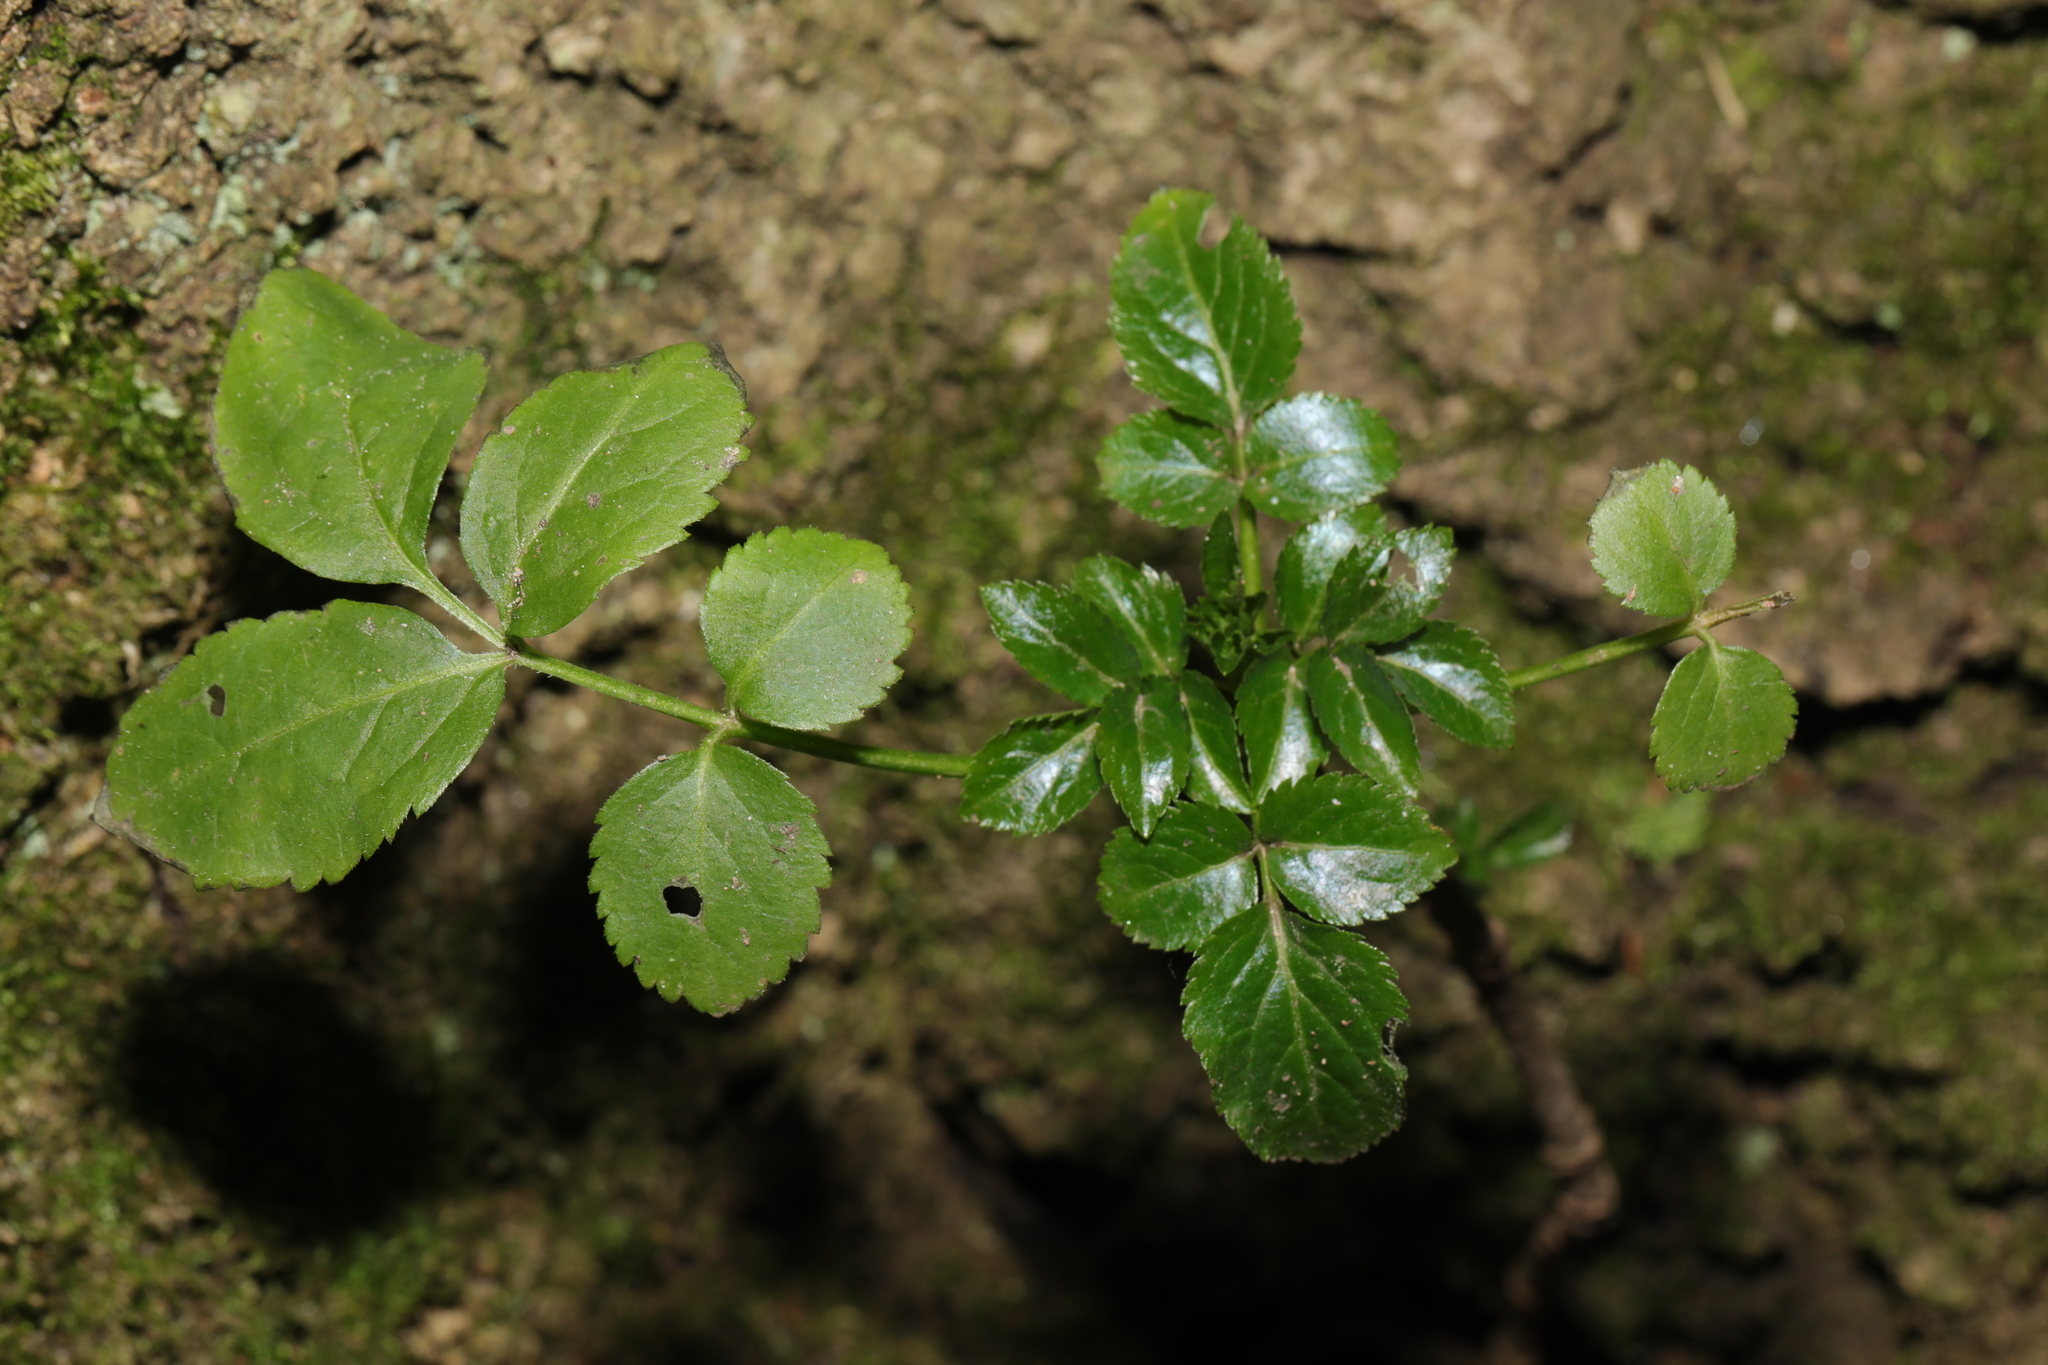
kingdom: Plantae
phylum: Tracheophyta
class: Magnoliopsida
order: Dipsacales
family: Viburnaceae
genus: Sambucus
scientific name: Sambucus nigra
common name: Elder
